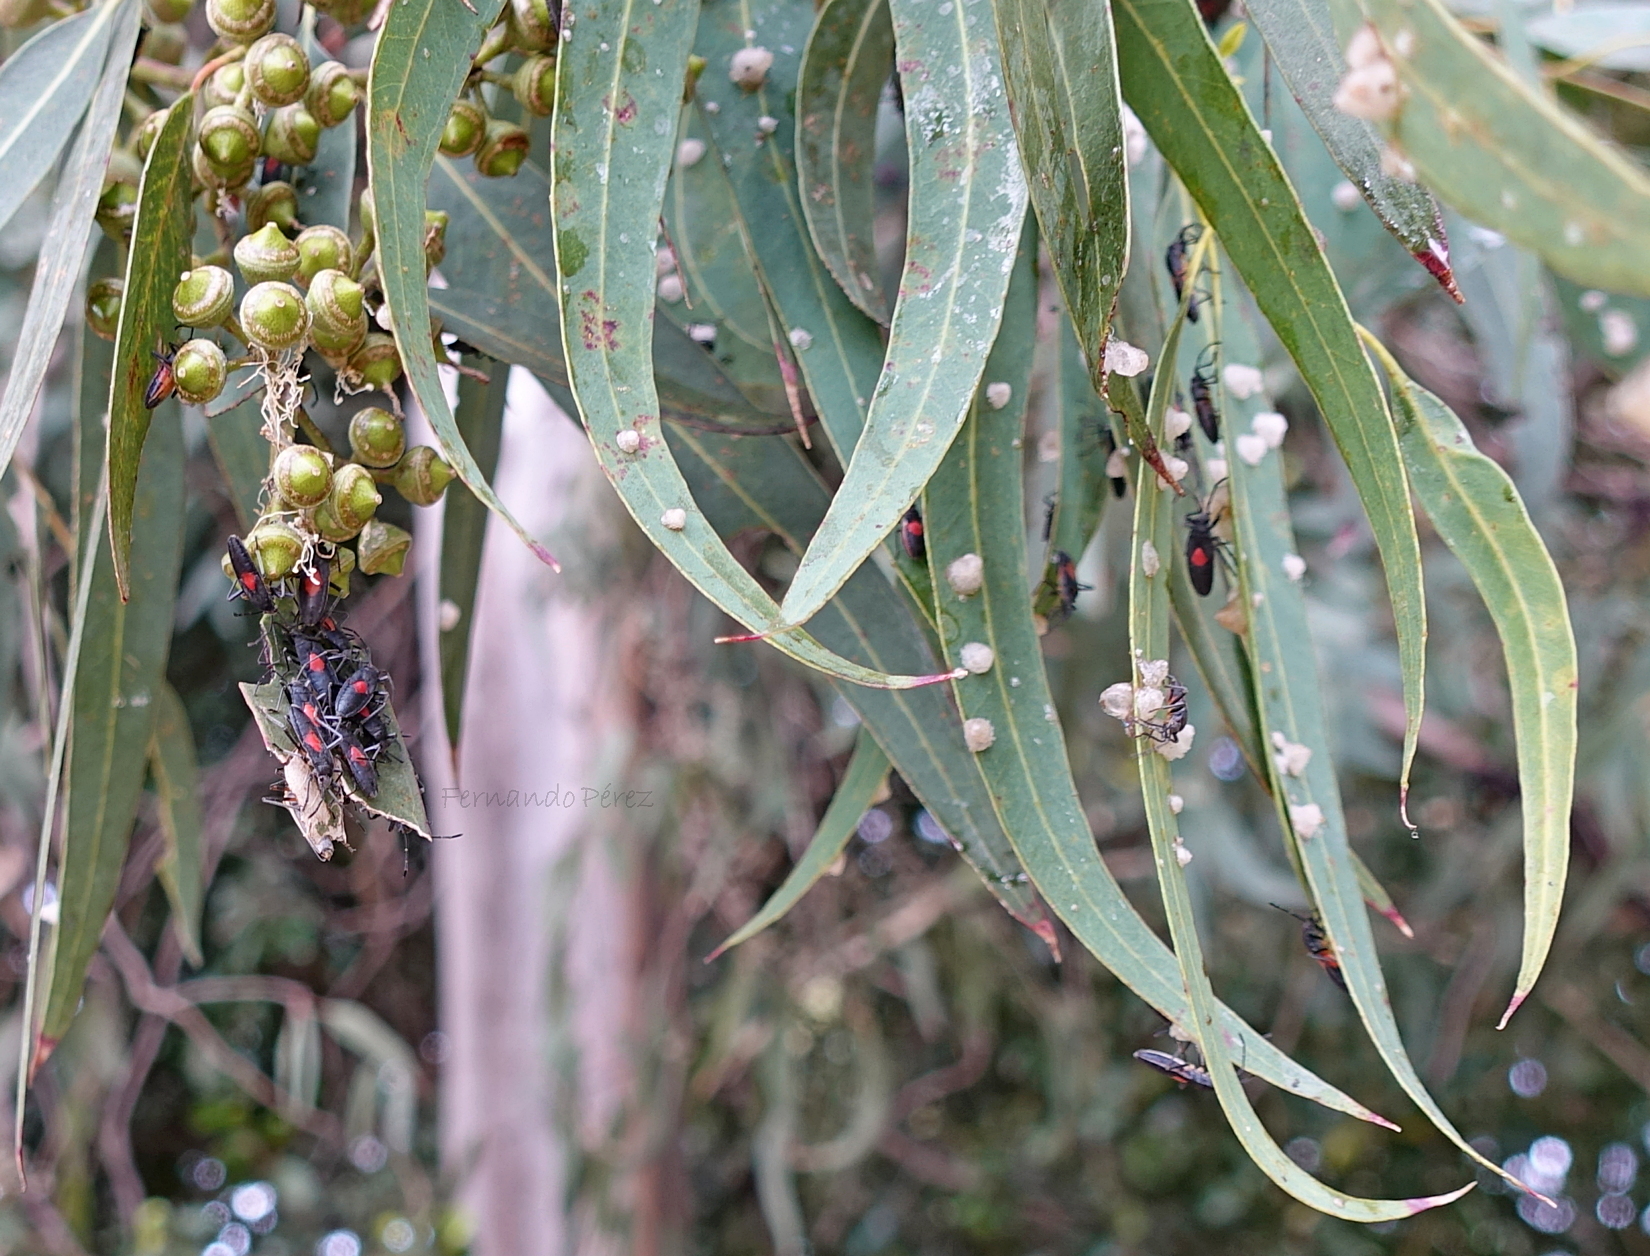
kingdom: Animalia
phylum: Arthropoda
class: Insecta
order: Hemiptera
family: Largidae
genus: Stenomacra
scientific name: Stenomacra marginella
